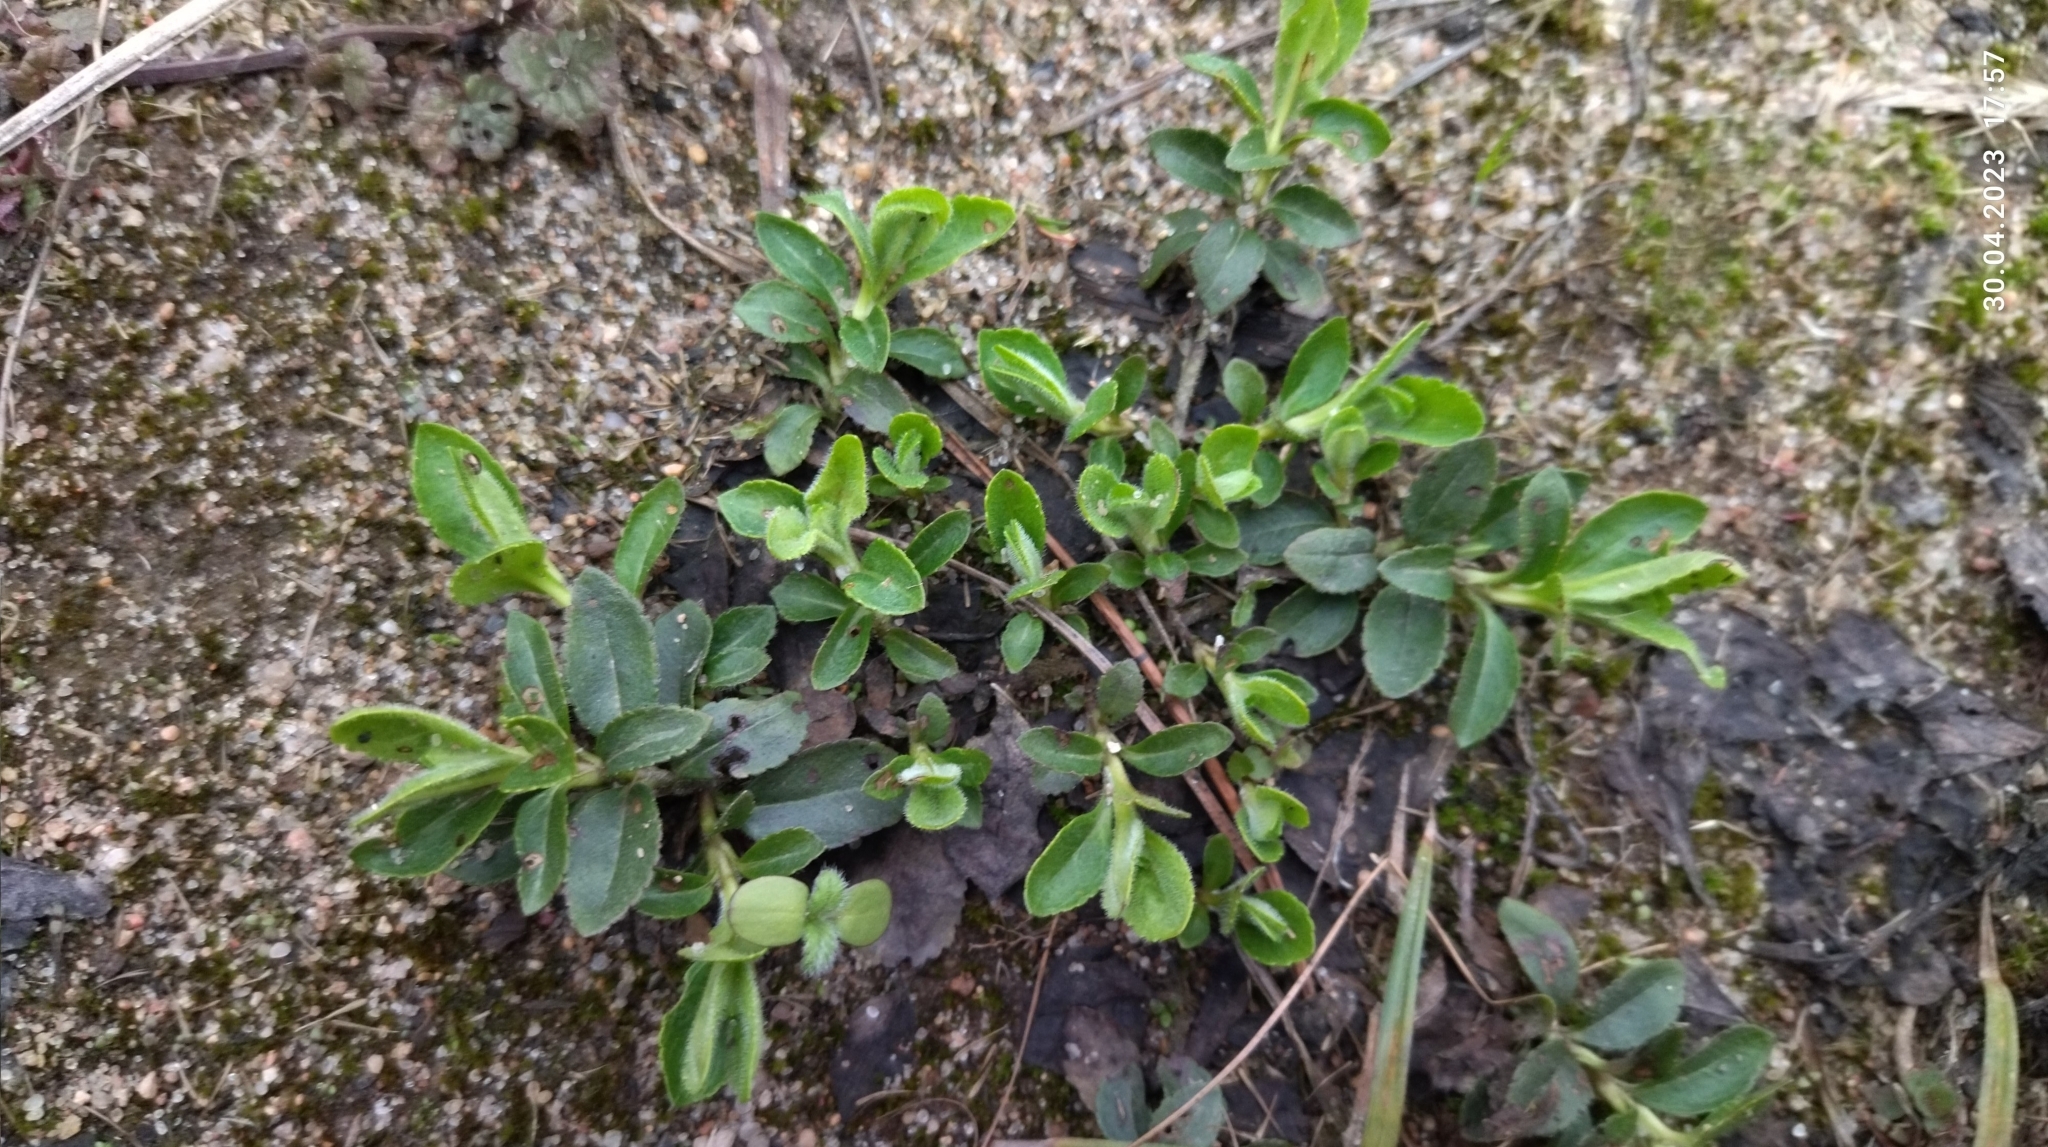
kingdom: Plantae
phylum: Tracheophyta
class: Magnoliopsida
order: Lamiales
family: Plantaginaceae
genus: Veronica
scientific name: Veronica officinalis
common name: Common speedwell
